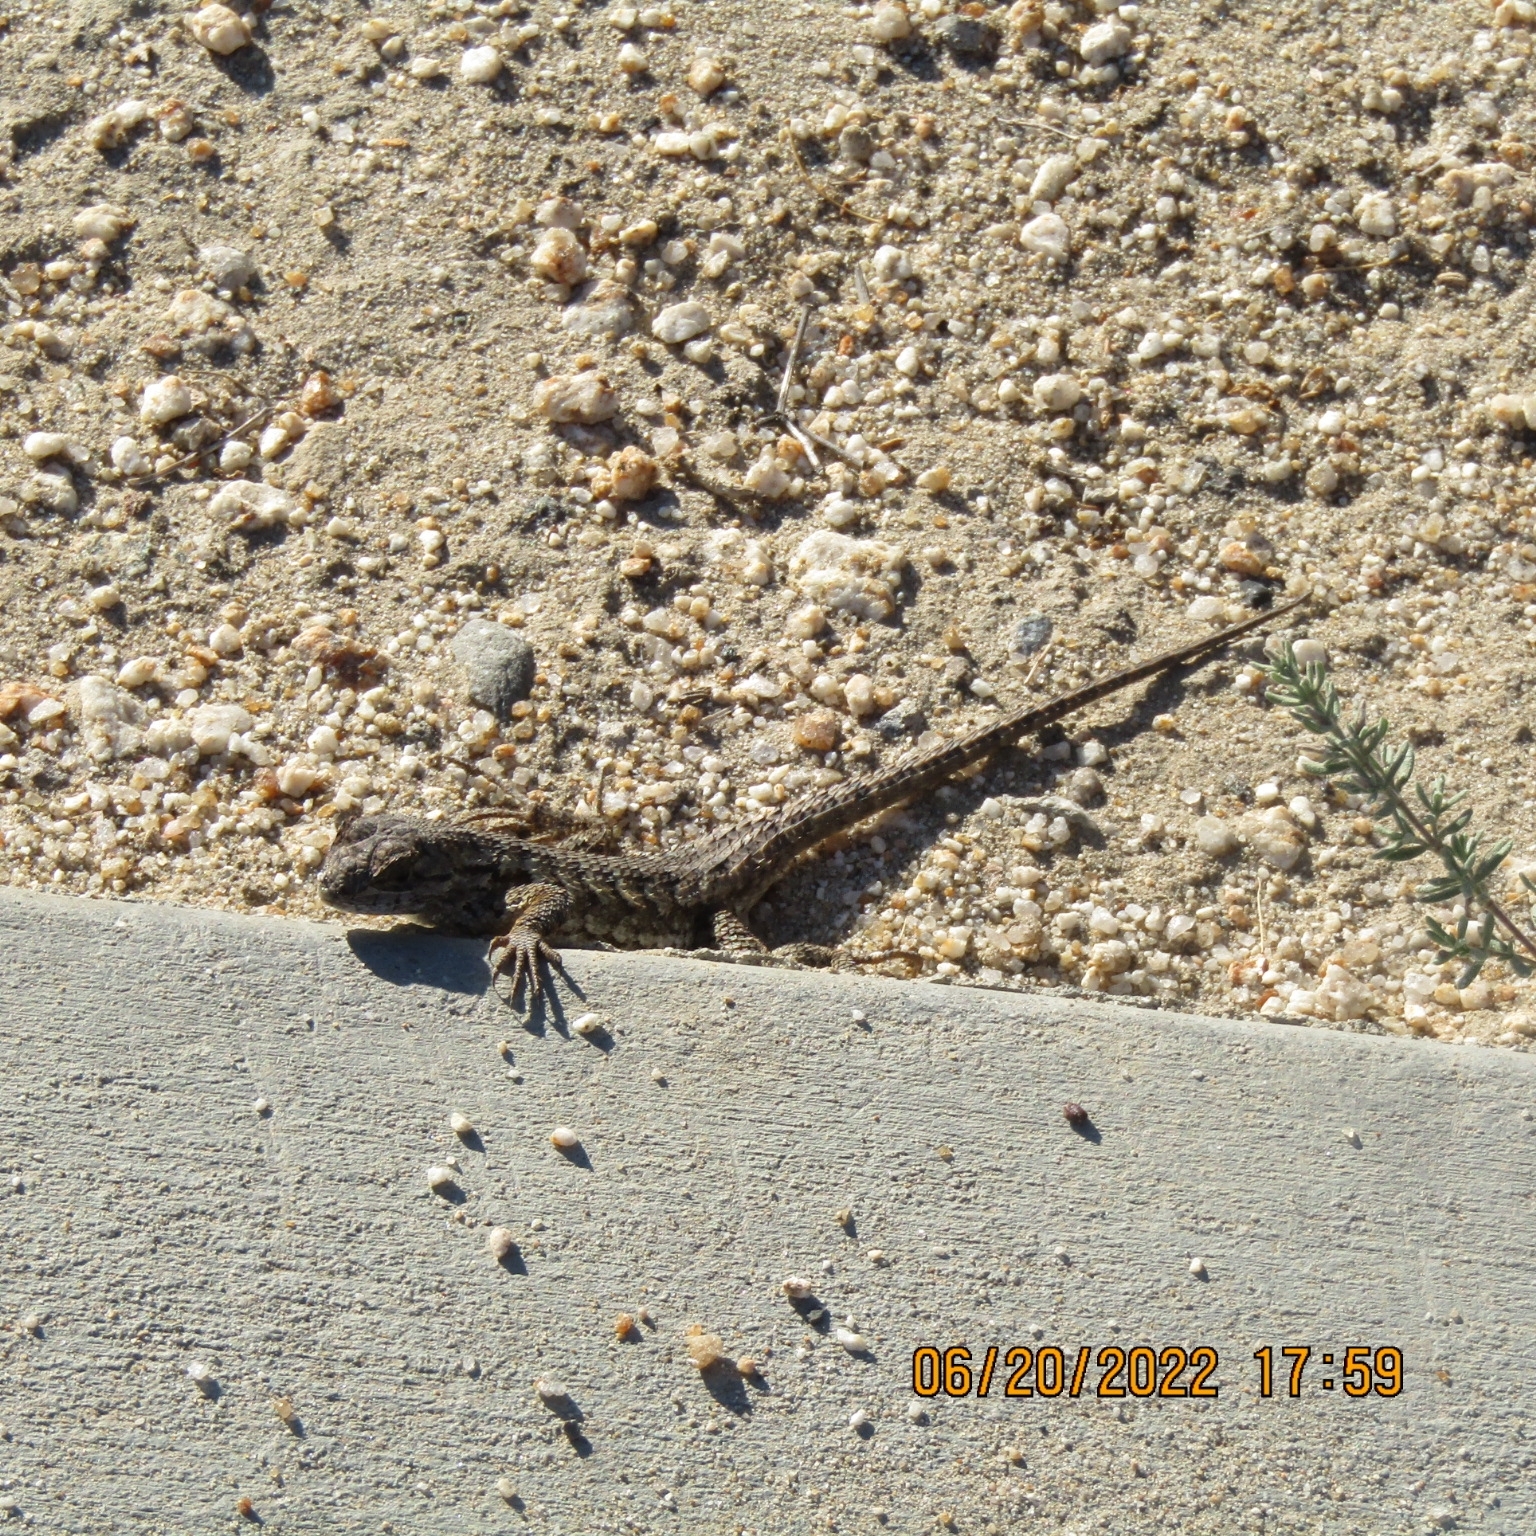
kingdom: Animalia
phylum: Chordata
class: Squamata
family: Phrynosomatidae
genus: Sceloporus
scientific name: Sceloporus occidentalis
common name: Western fence lizard
